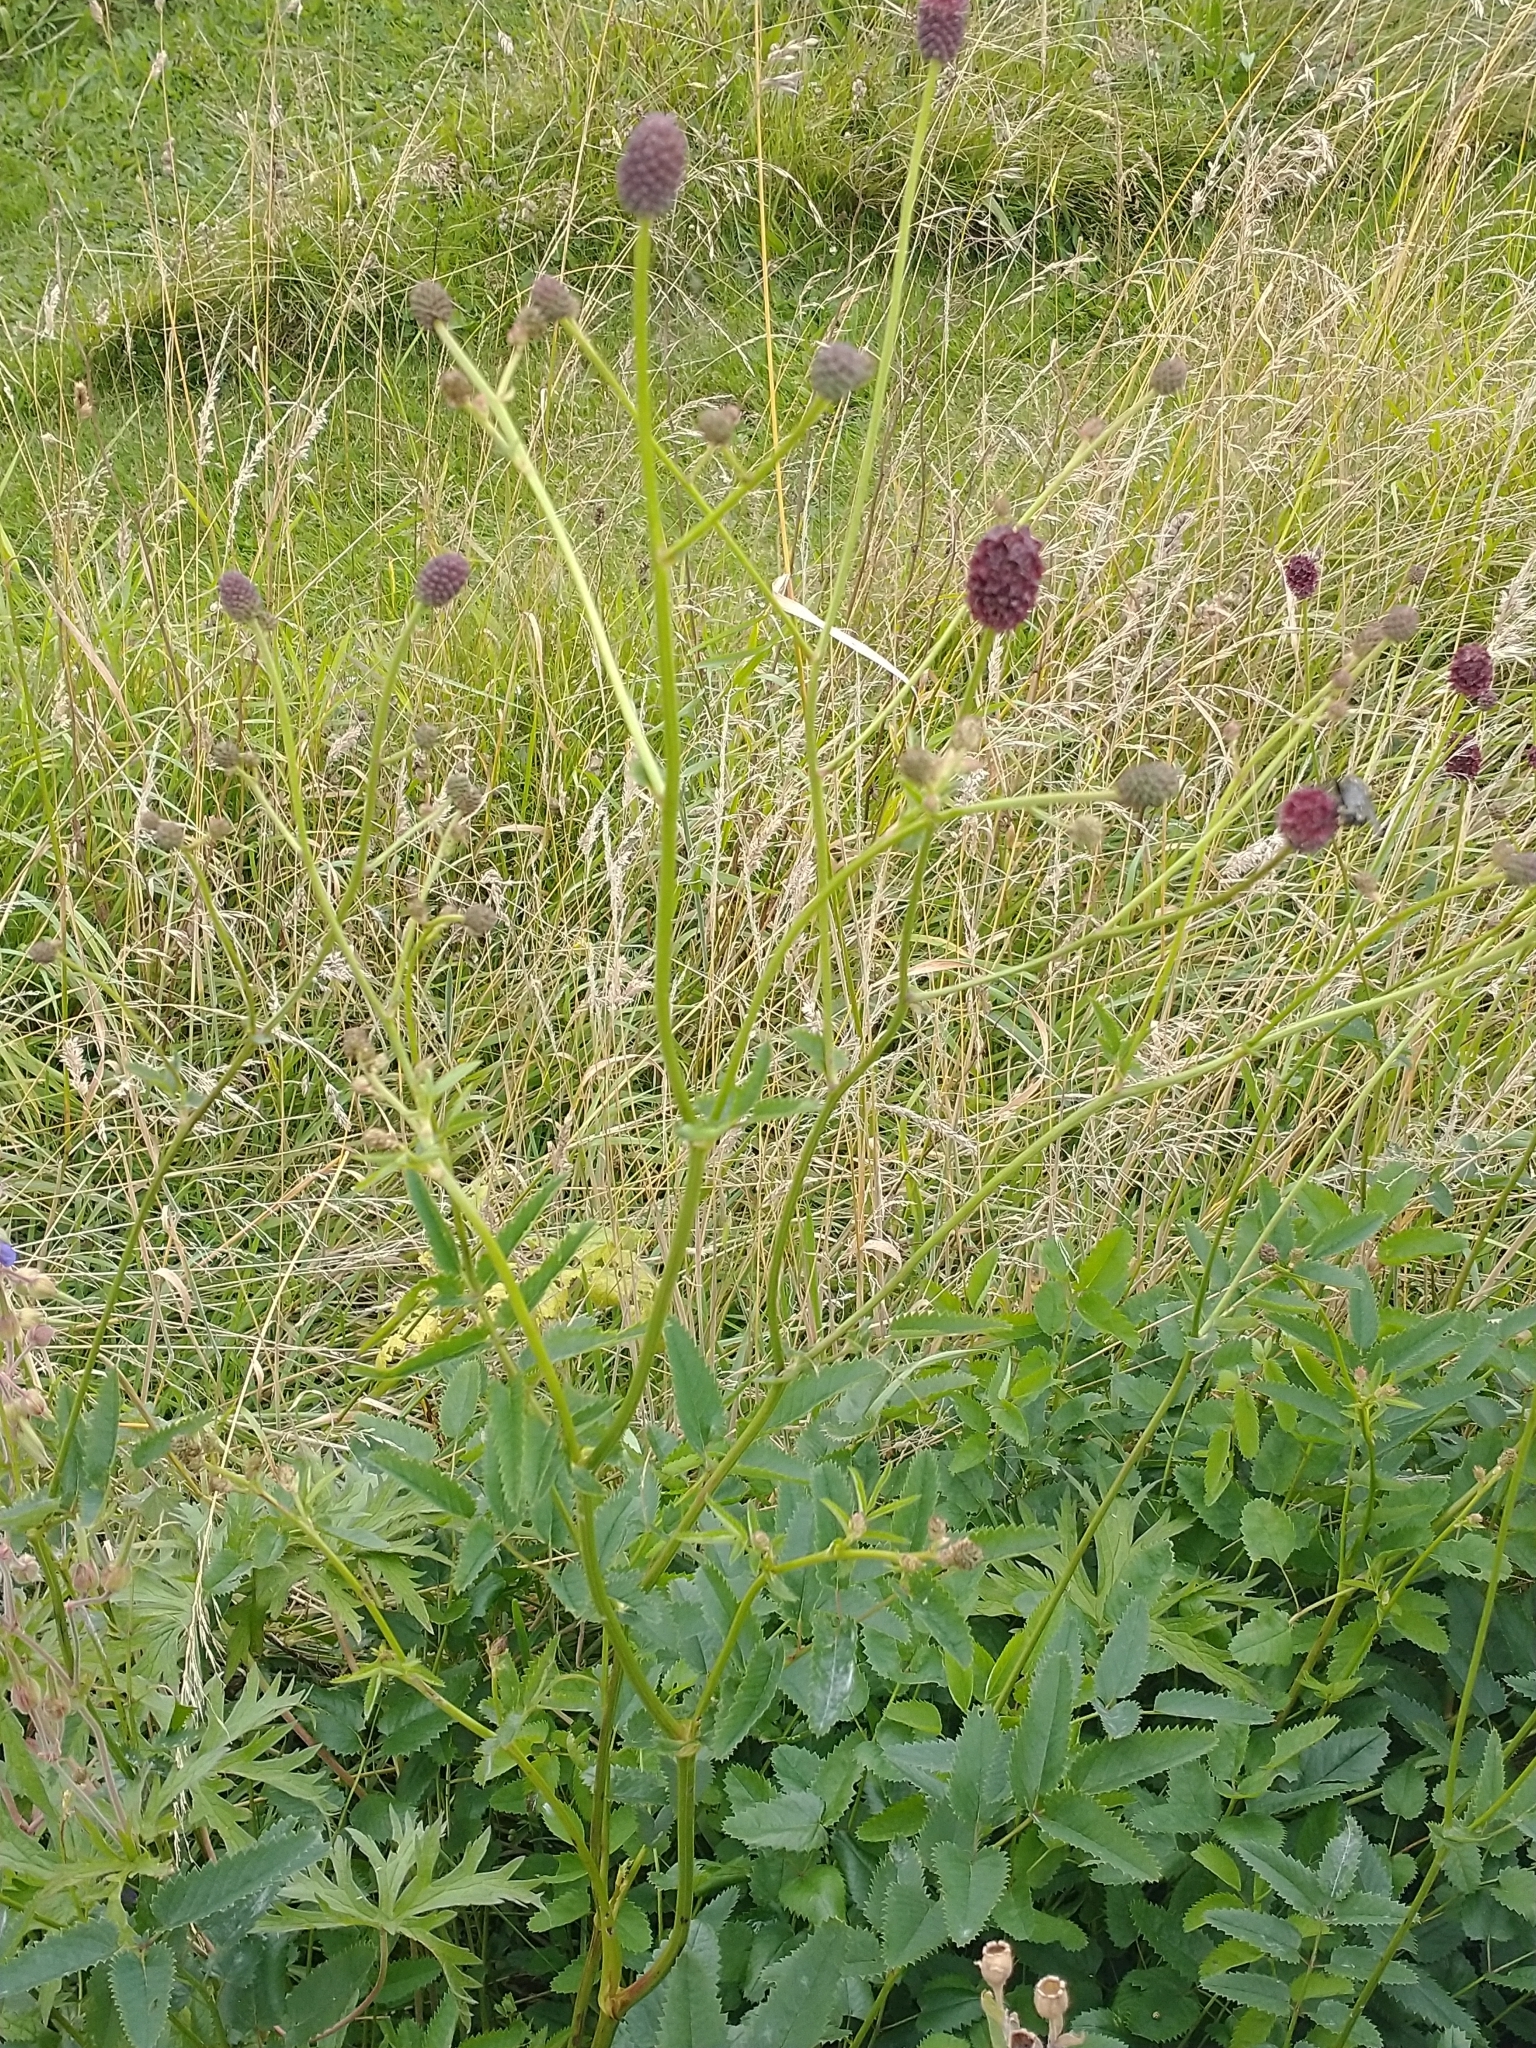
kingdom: Plantae
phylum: Tracheophyta
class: Magnoliopsida
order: Rosales
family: Rosaceae
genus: Sanguisorba
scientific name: Sanguisorba officinalis
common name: Great burnet
